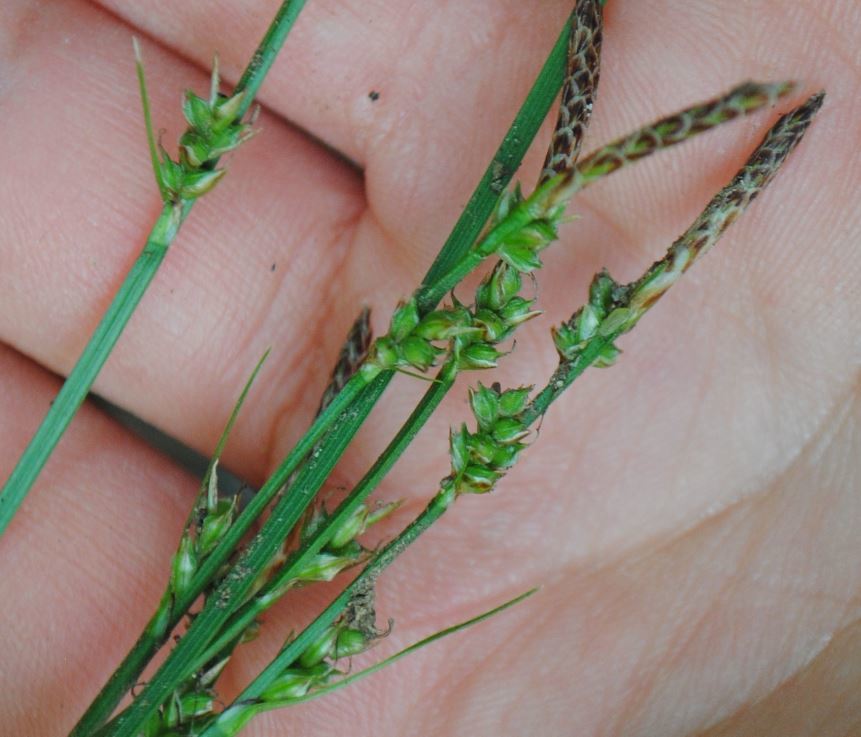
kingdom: Plantae
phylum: Tracheophyta
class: Liliopsida
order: Poales
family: Cyperaceae
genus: Carex
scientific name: Carex communis
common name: Colonial oak sedge
